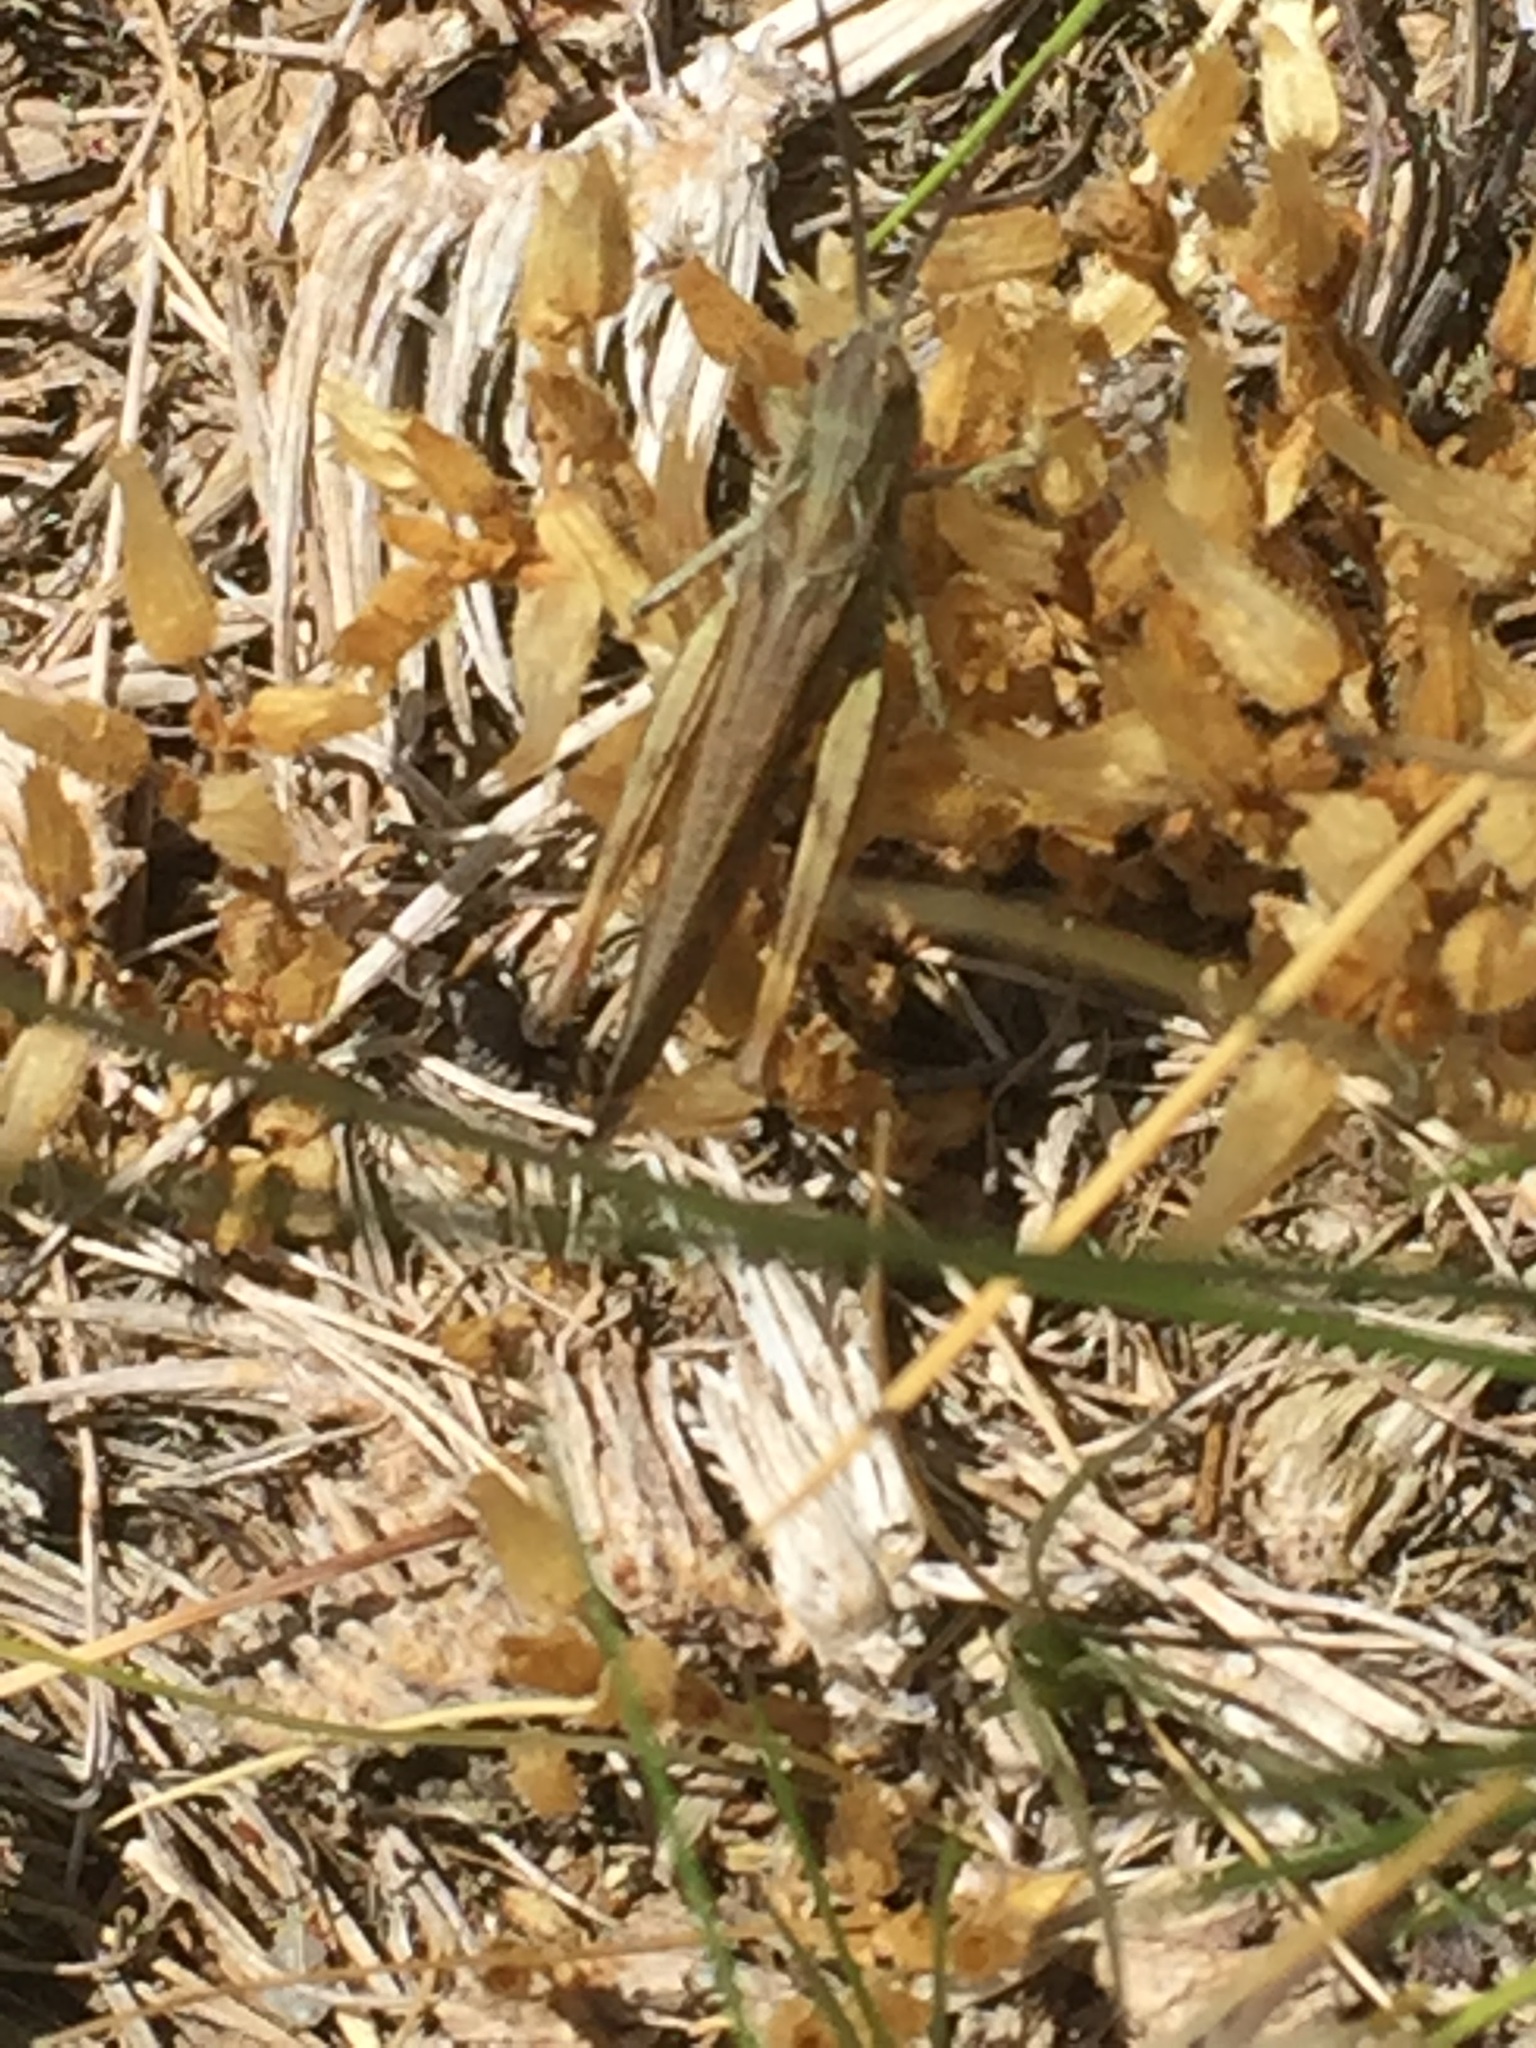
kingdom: Animalia
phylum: Arthropoda
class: Insecta
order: Orthoptera
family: Acrididae
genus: Chorthippus
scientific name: Chorthippus yersini
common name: Yersin's grasshopper
